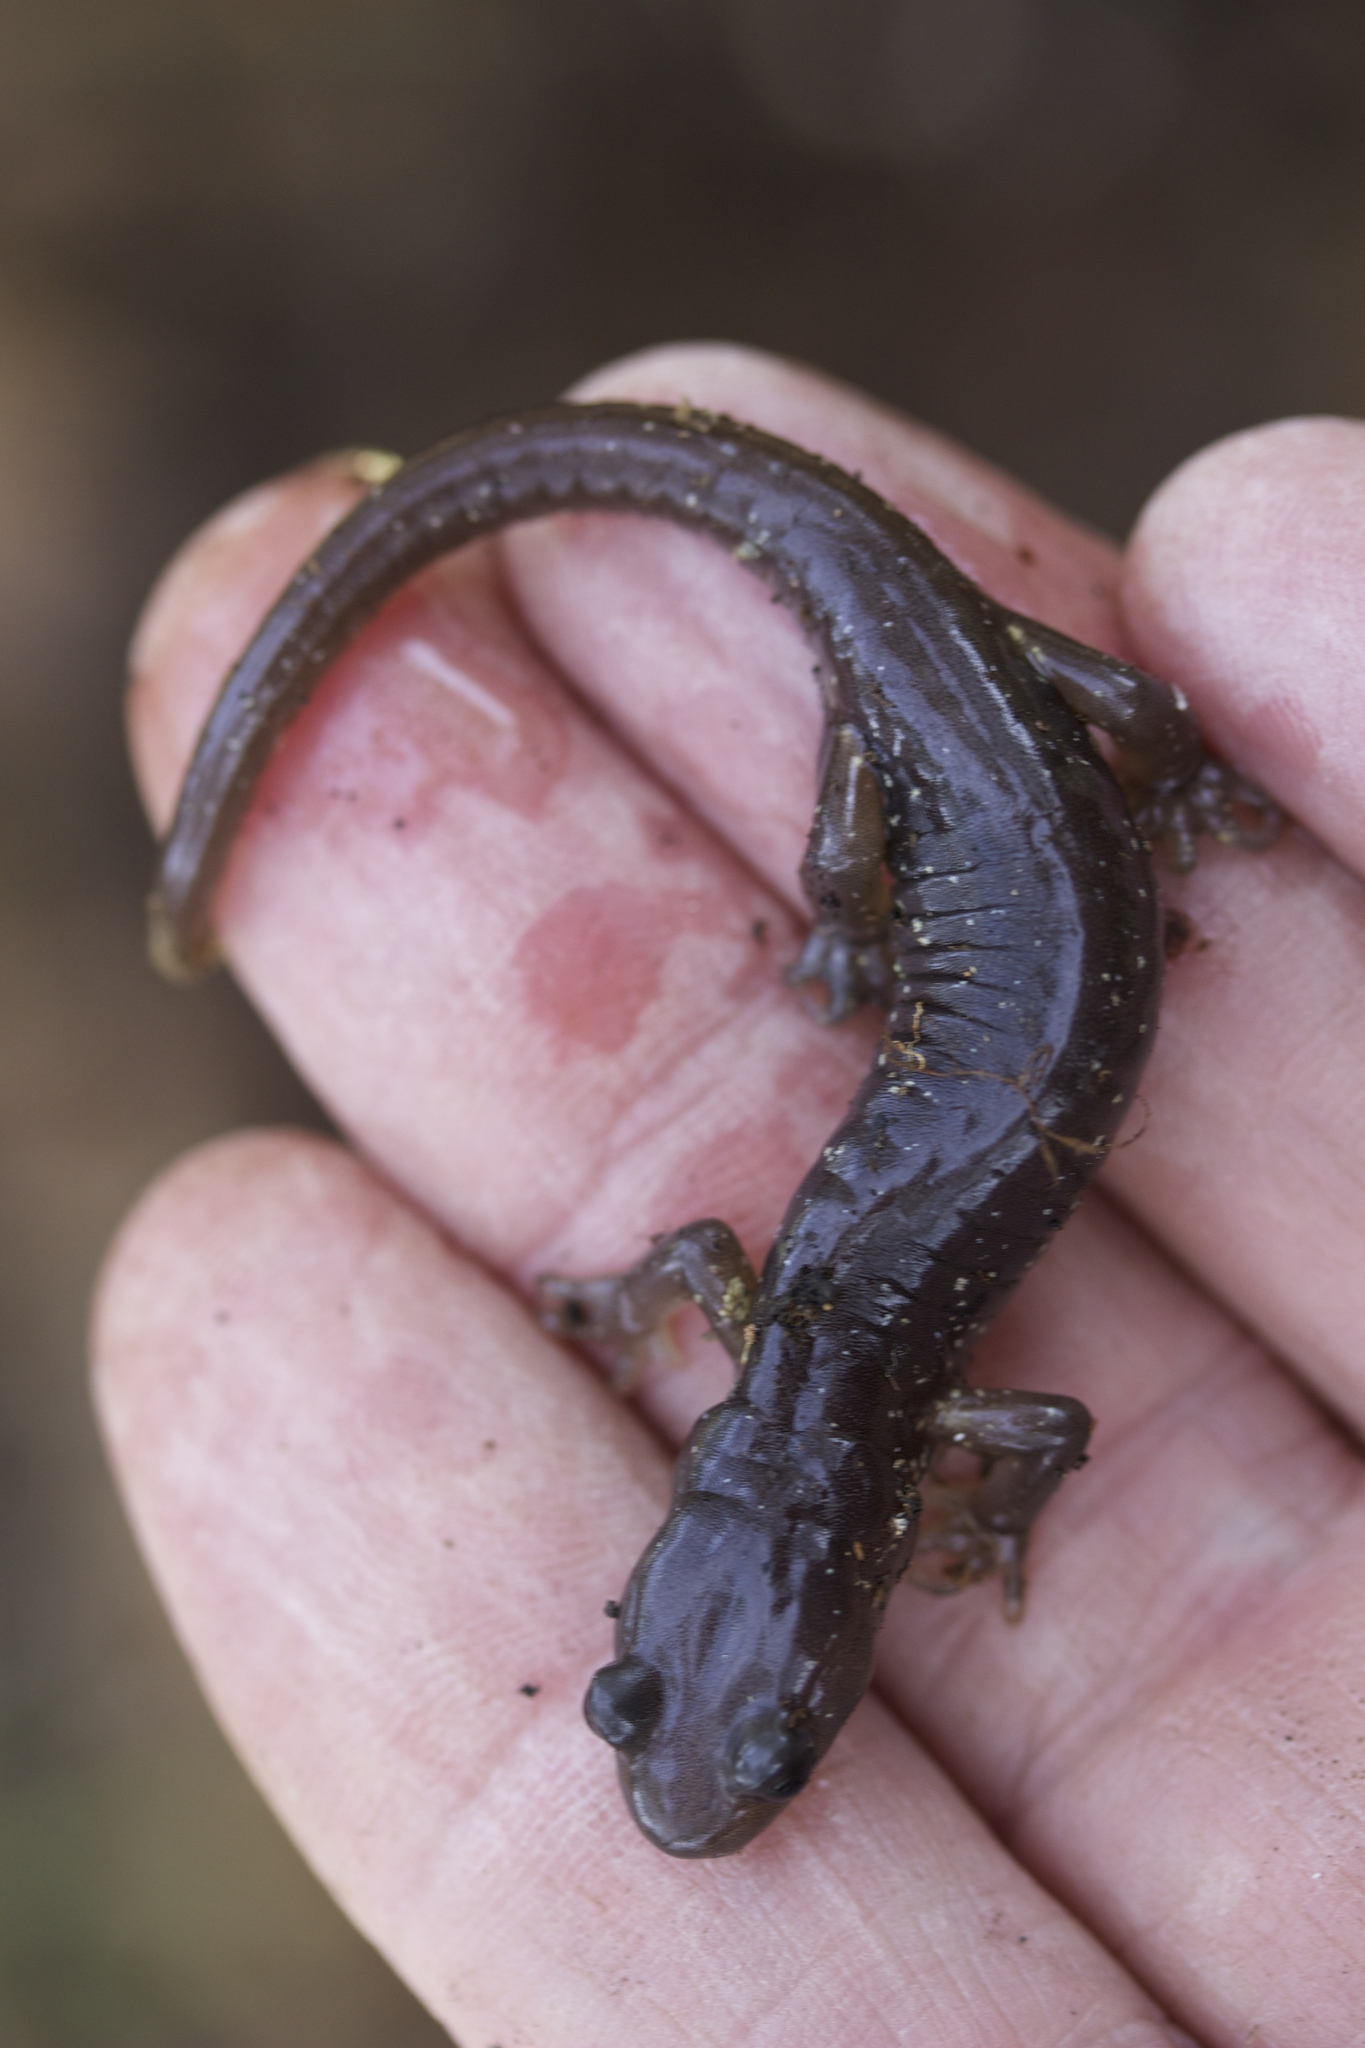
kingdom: Animalia
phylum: Chordata
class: Amphibia
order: Caudata
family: Plethodontidae
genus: Aneides
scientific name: Aneides lugubris
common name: Arboreal salamander
